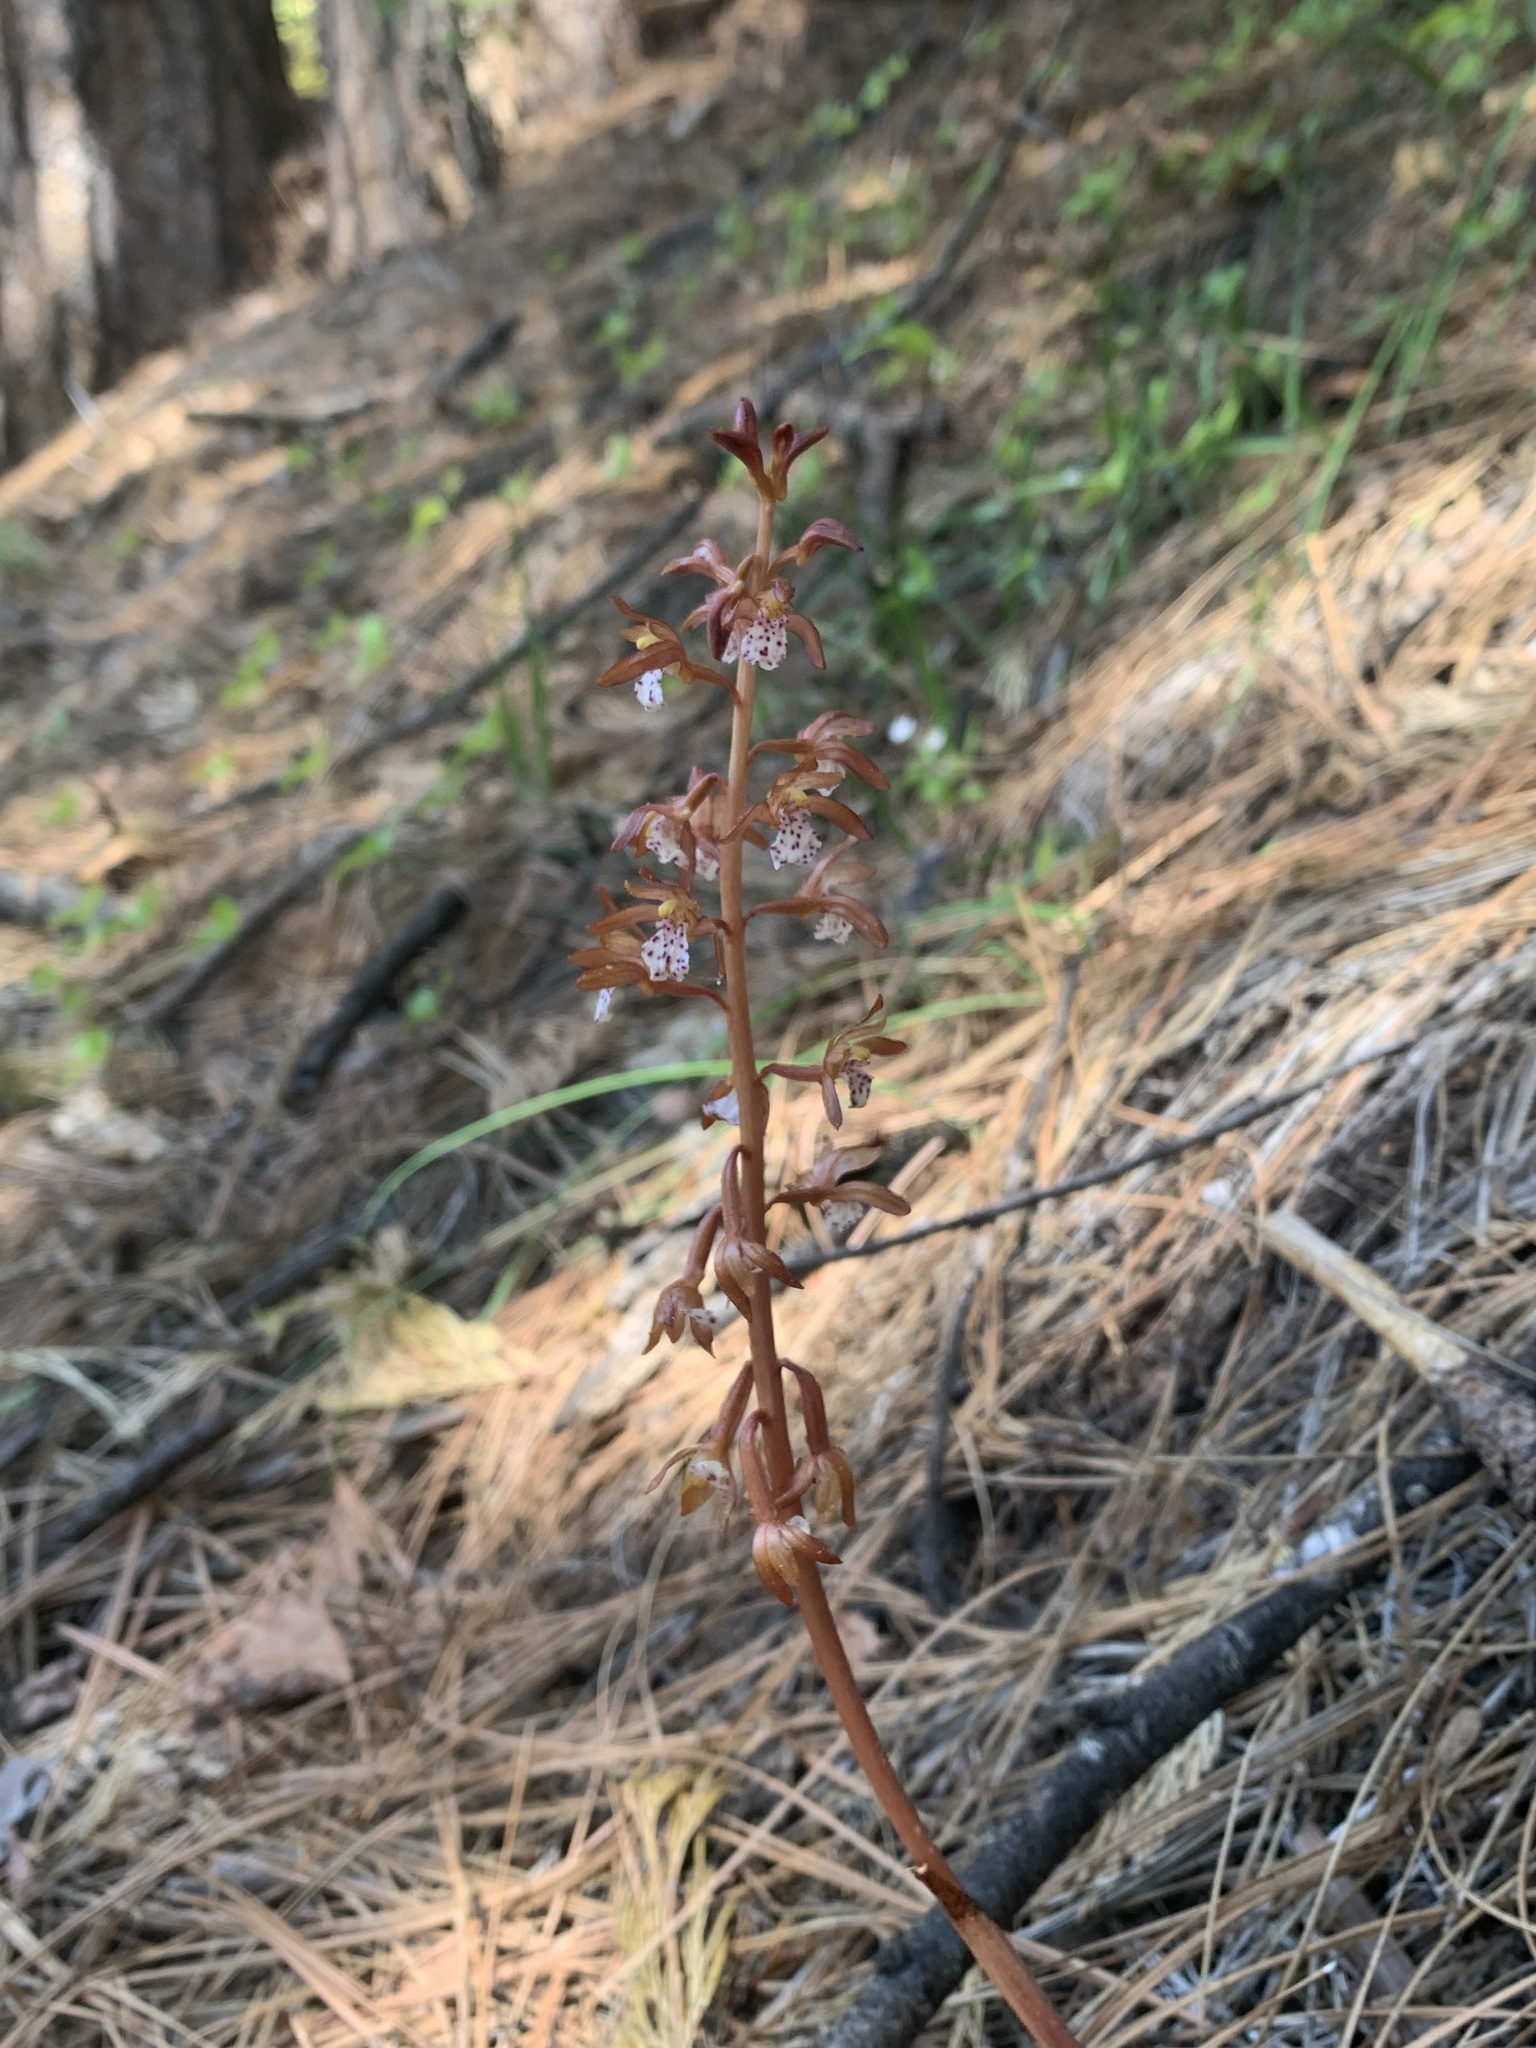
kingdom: Plantae
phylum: Tracheophyta
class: Liliopsida
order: Asparagales
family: Orchidaceae
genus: Corallorhiza
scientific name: Corallorhiza maculata
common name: Spotted coralroot
